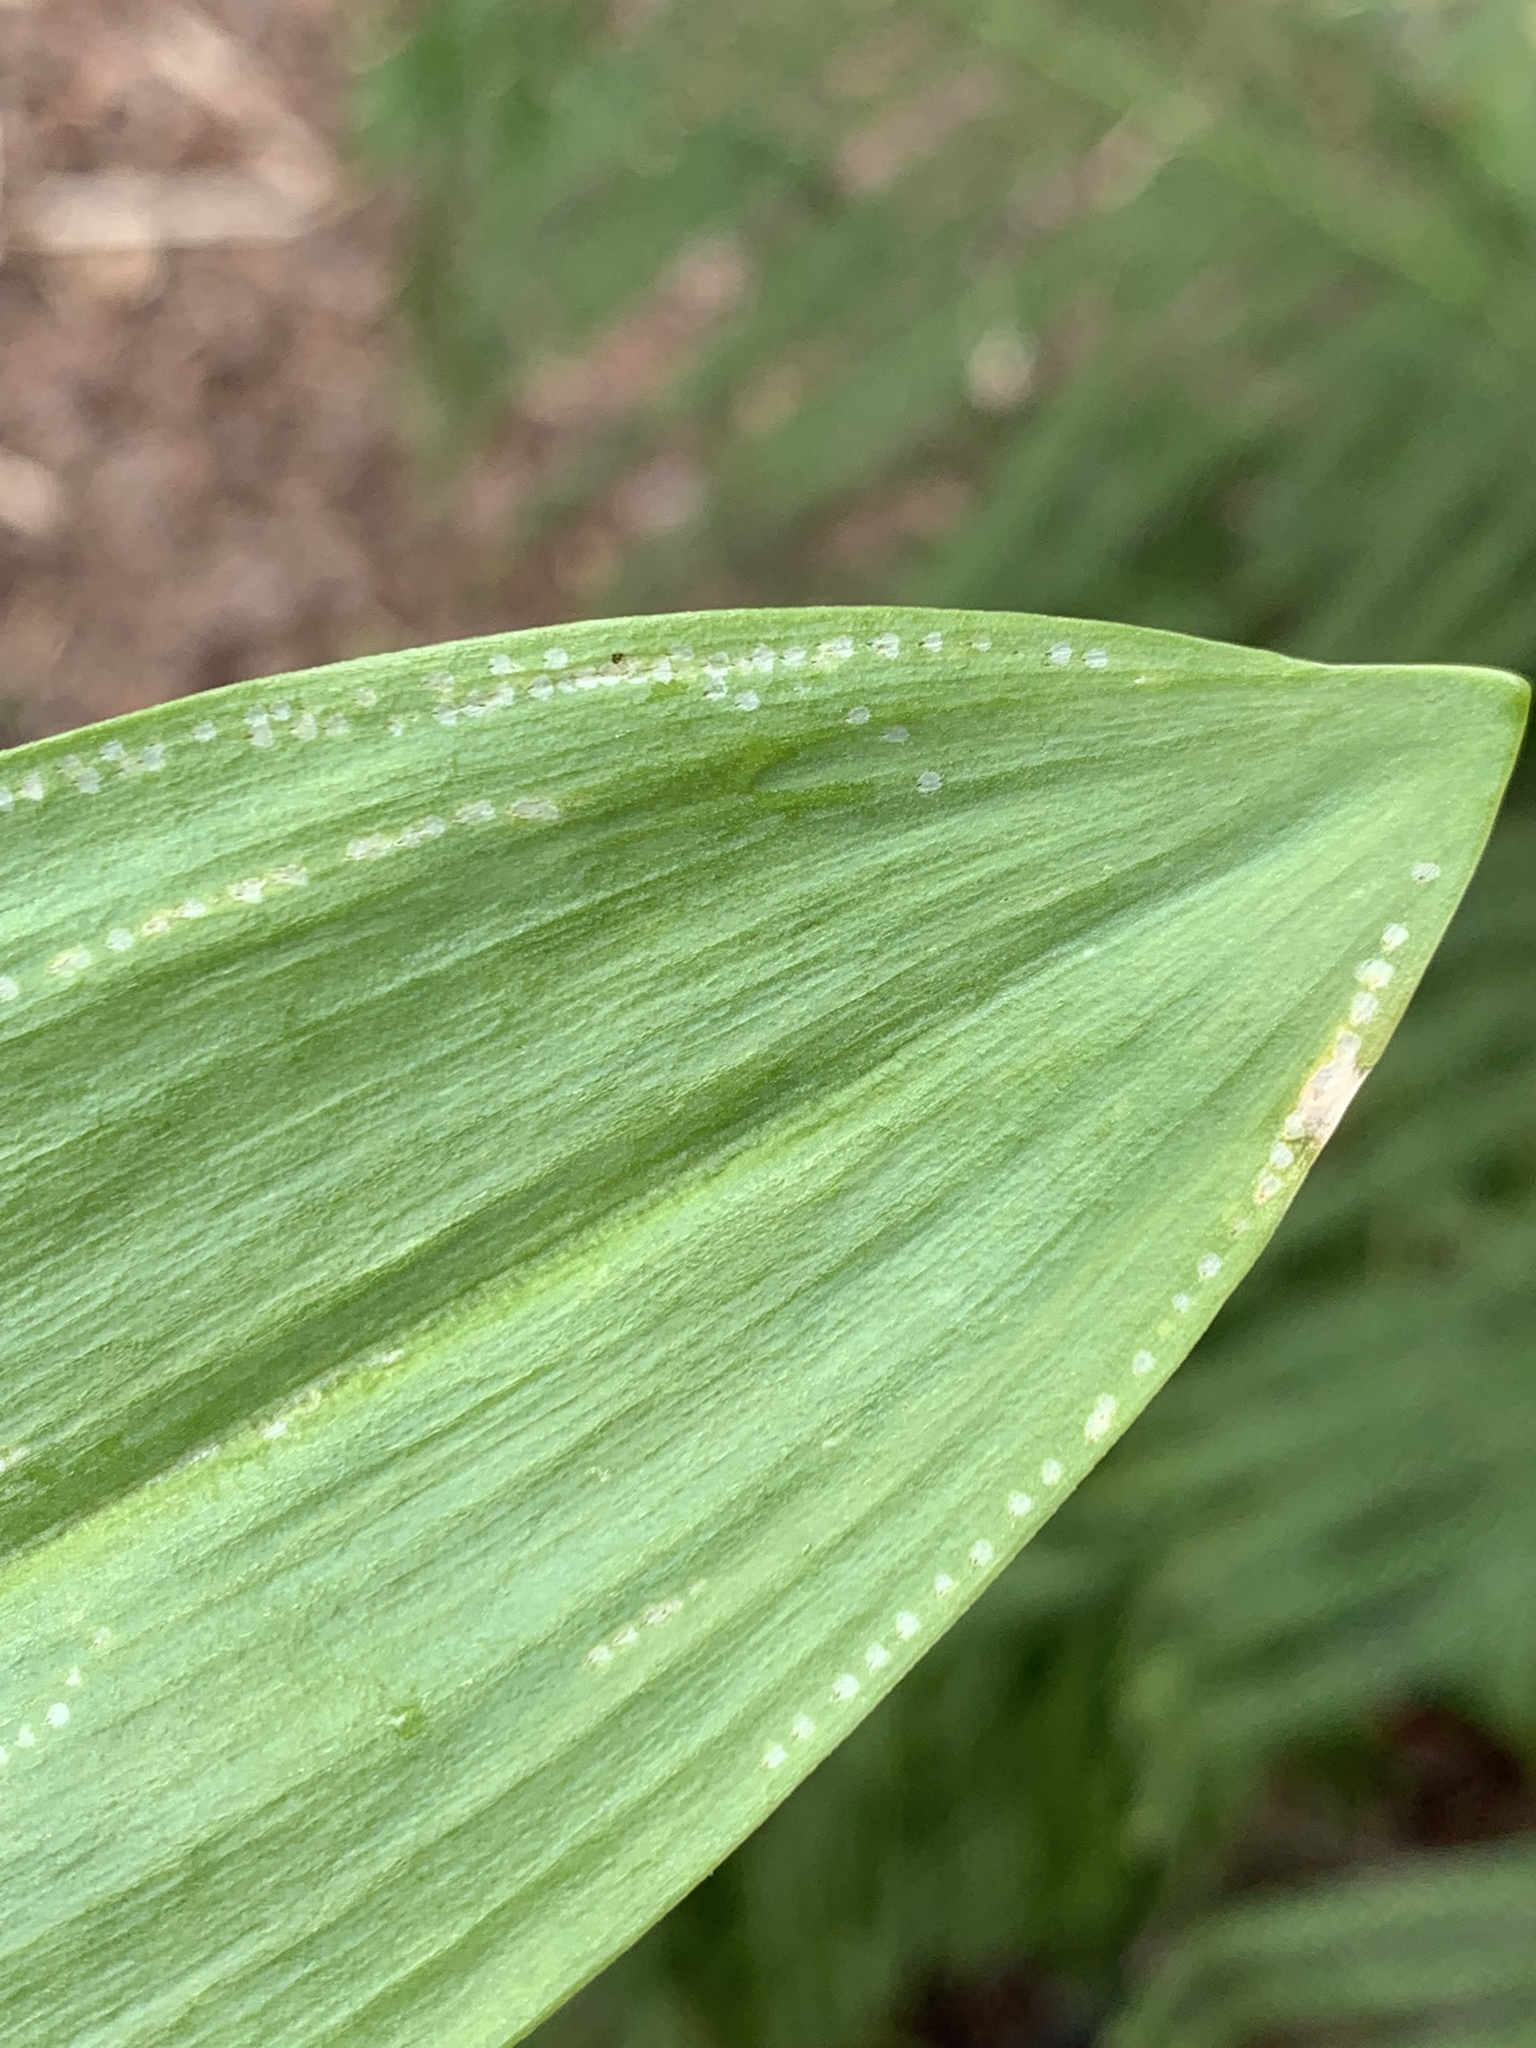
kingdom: Animalia
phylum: Arthropoda
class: Insecta
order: Diptera
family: Agromyzidae
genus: Phytomyza
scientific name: Phytomyza gymnostoma
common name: Allium leafminer
